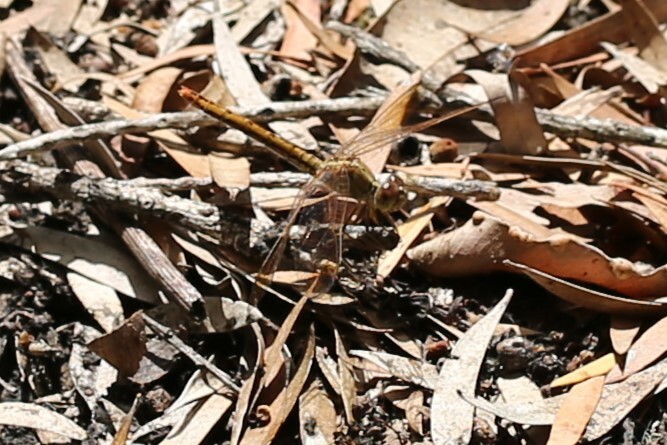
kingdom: Animalia
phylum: Arthropoda
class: Insecta
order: Odonata
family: Libellulidae
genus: Diplacodes
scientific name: Diplacodes haematodes
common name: Scarlet percher
